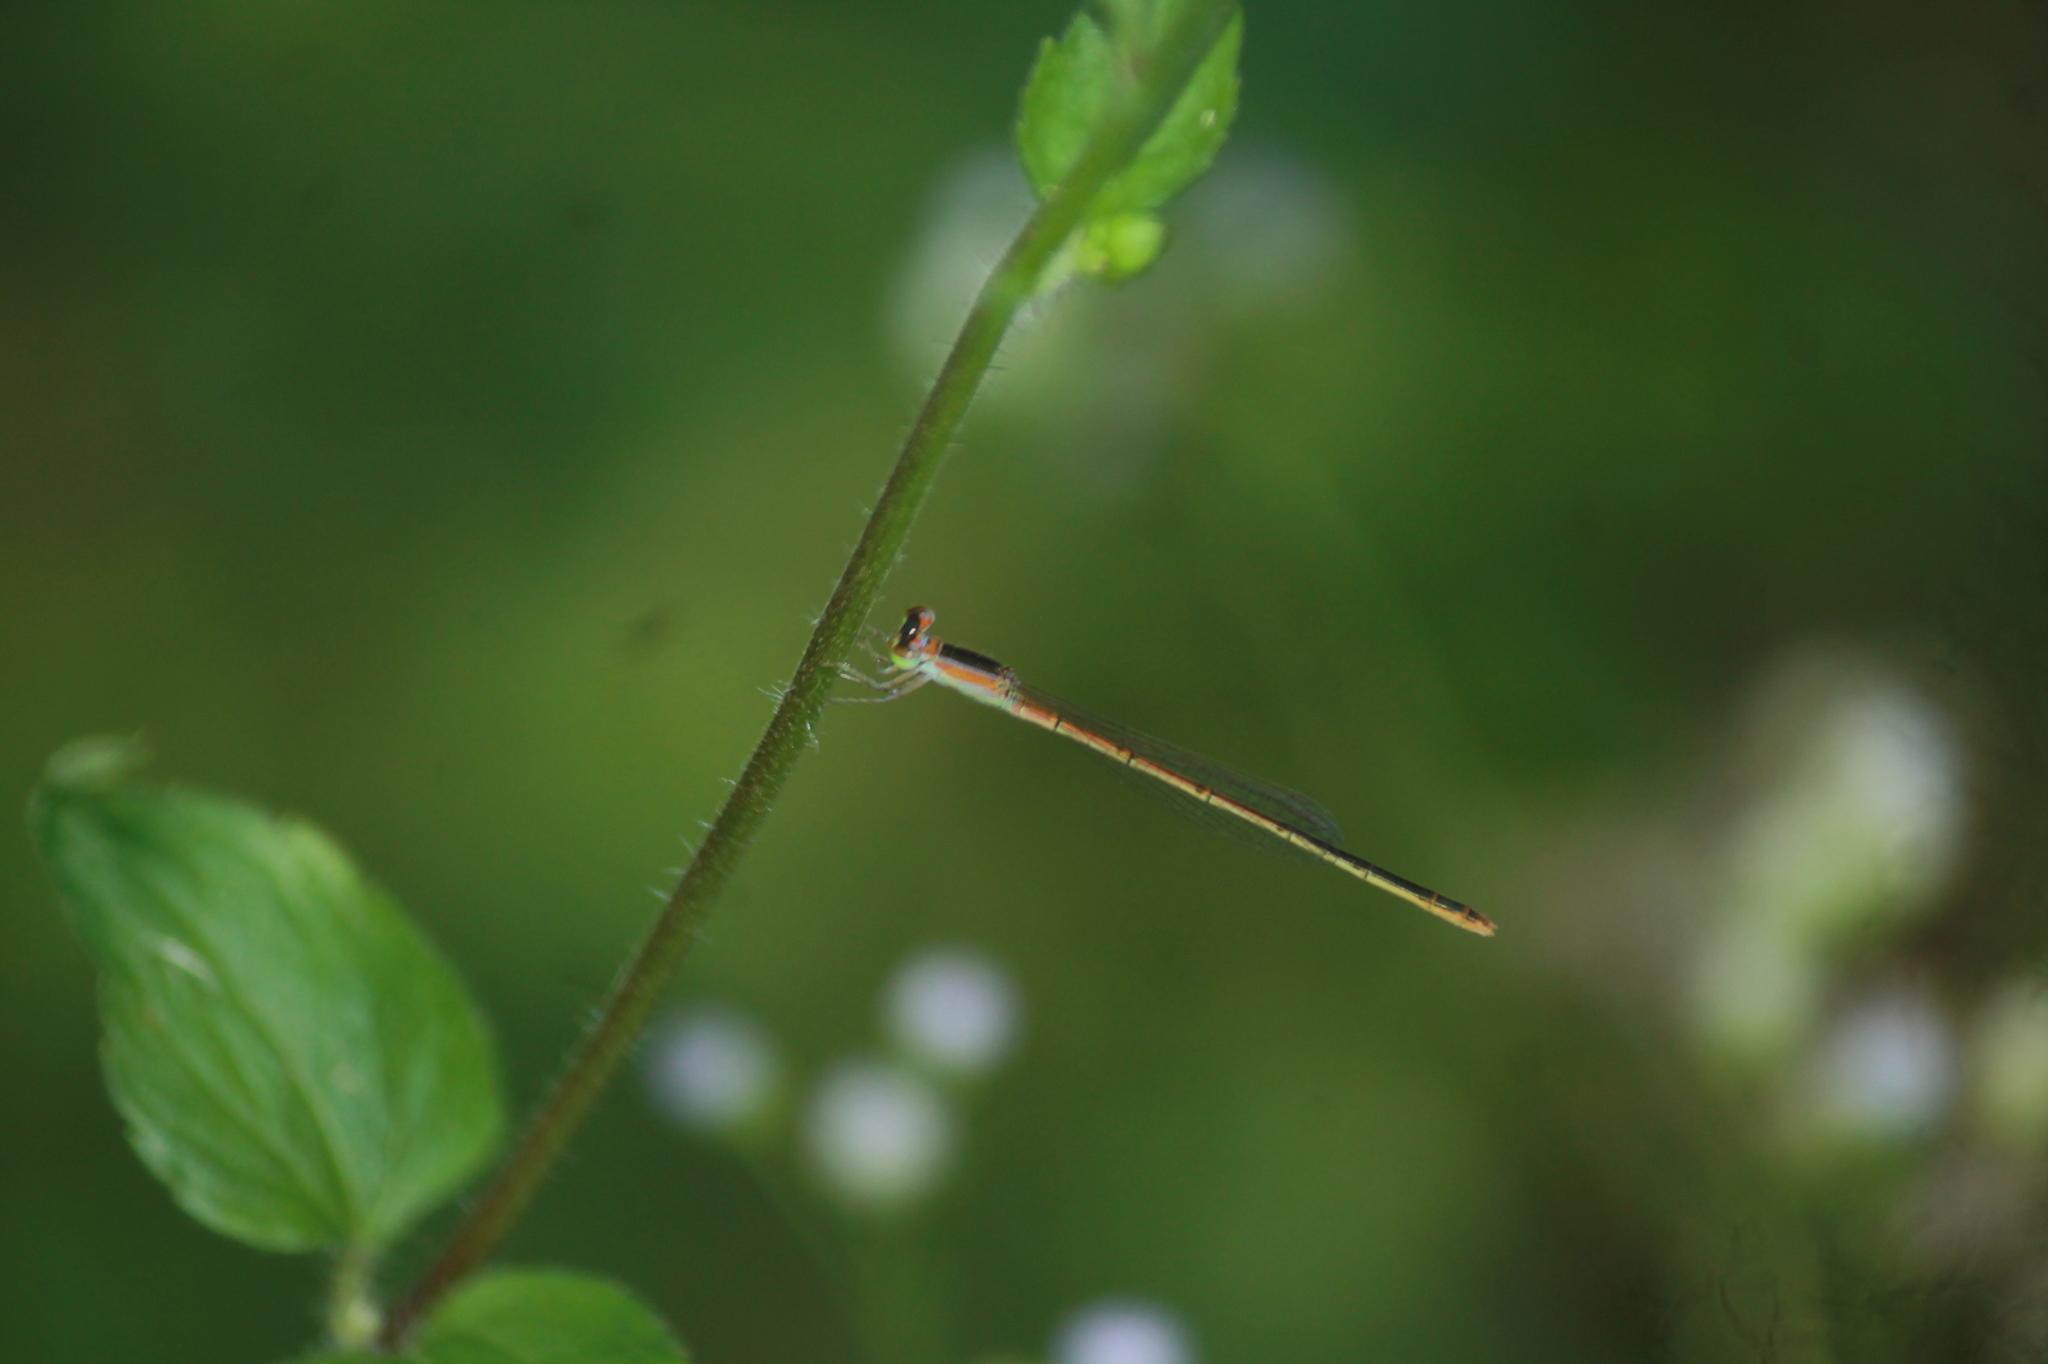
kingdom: Animalia
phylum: Arthropoda
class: Insecta
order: Odonata
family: Coenagrionidae
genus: Agriocnemis
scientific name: Agriocnemis pygmaea
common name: Pygmy wisp
